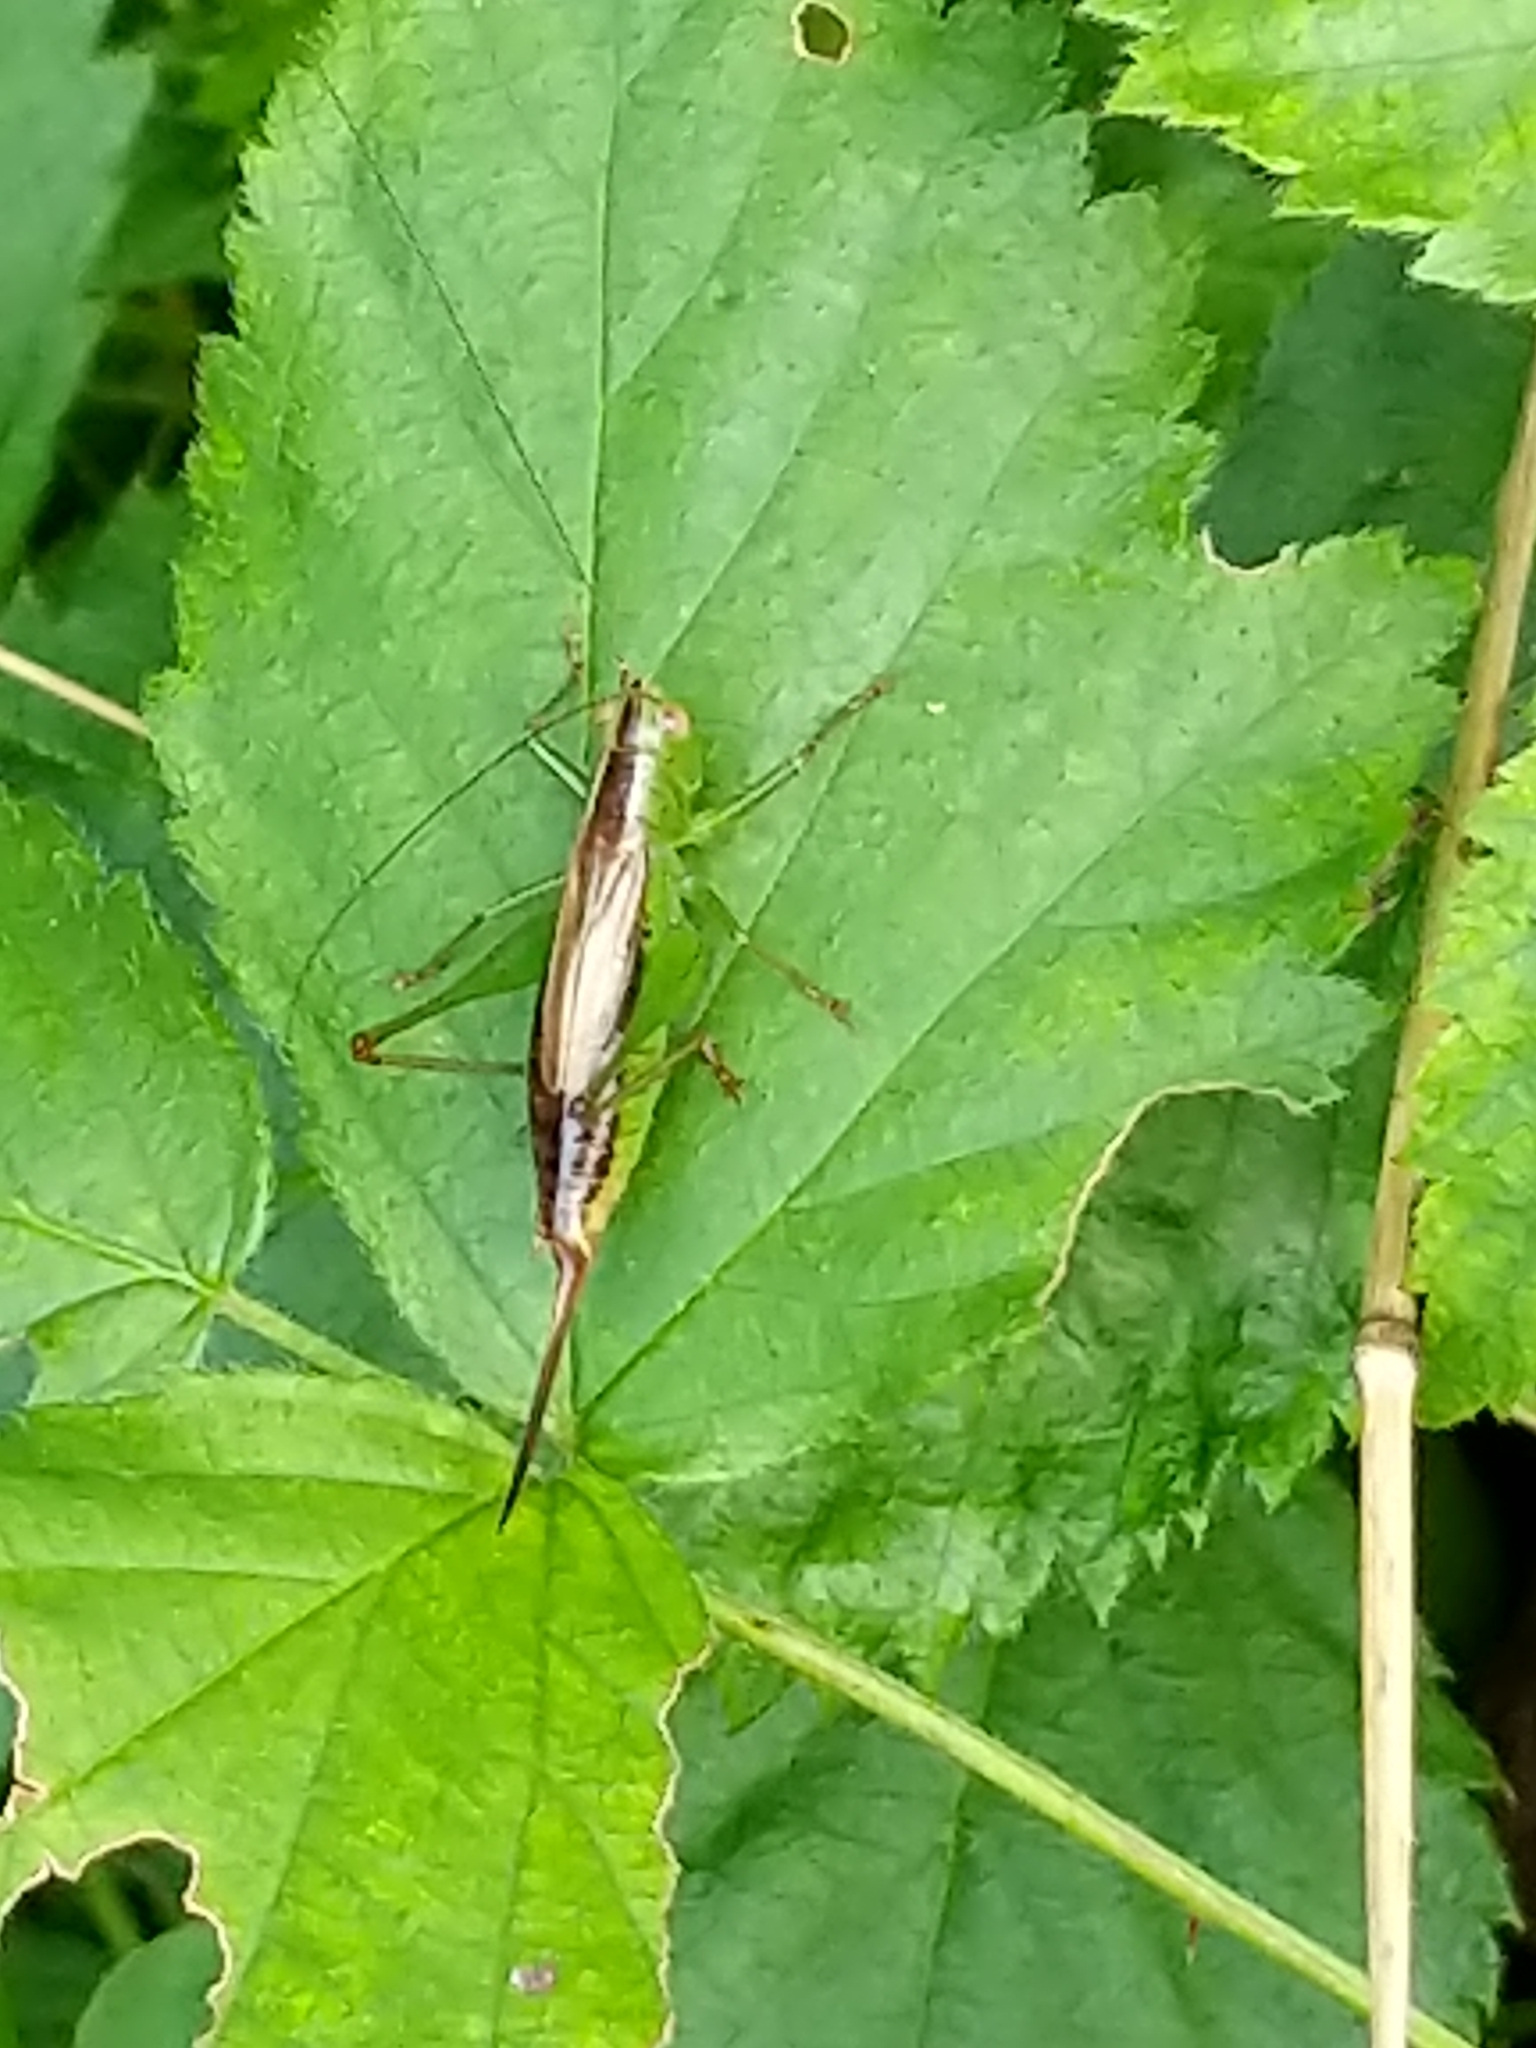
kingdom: Animalia
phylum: Arthropoda
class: Insecta
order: Orthoptera
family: Tettigoniidae
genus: Conocephalus
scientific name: Conocephalus brevipennis
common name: Short-winged meadow katydid
